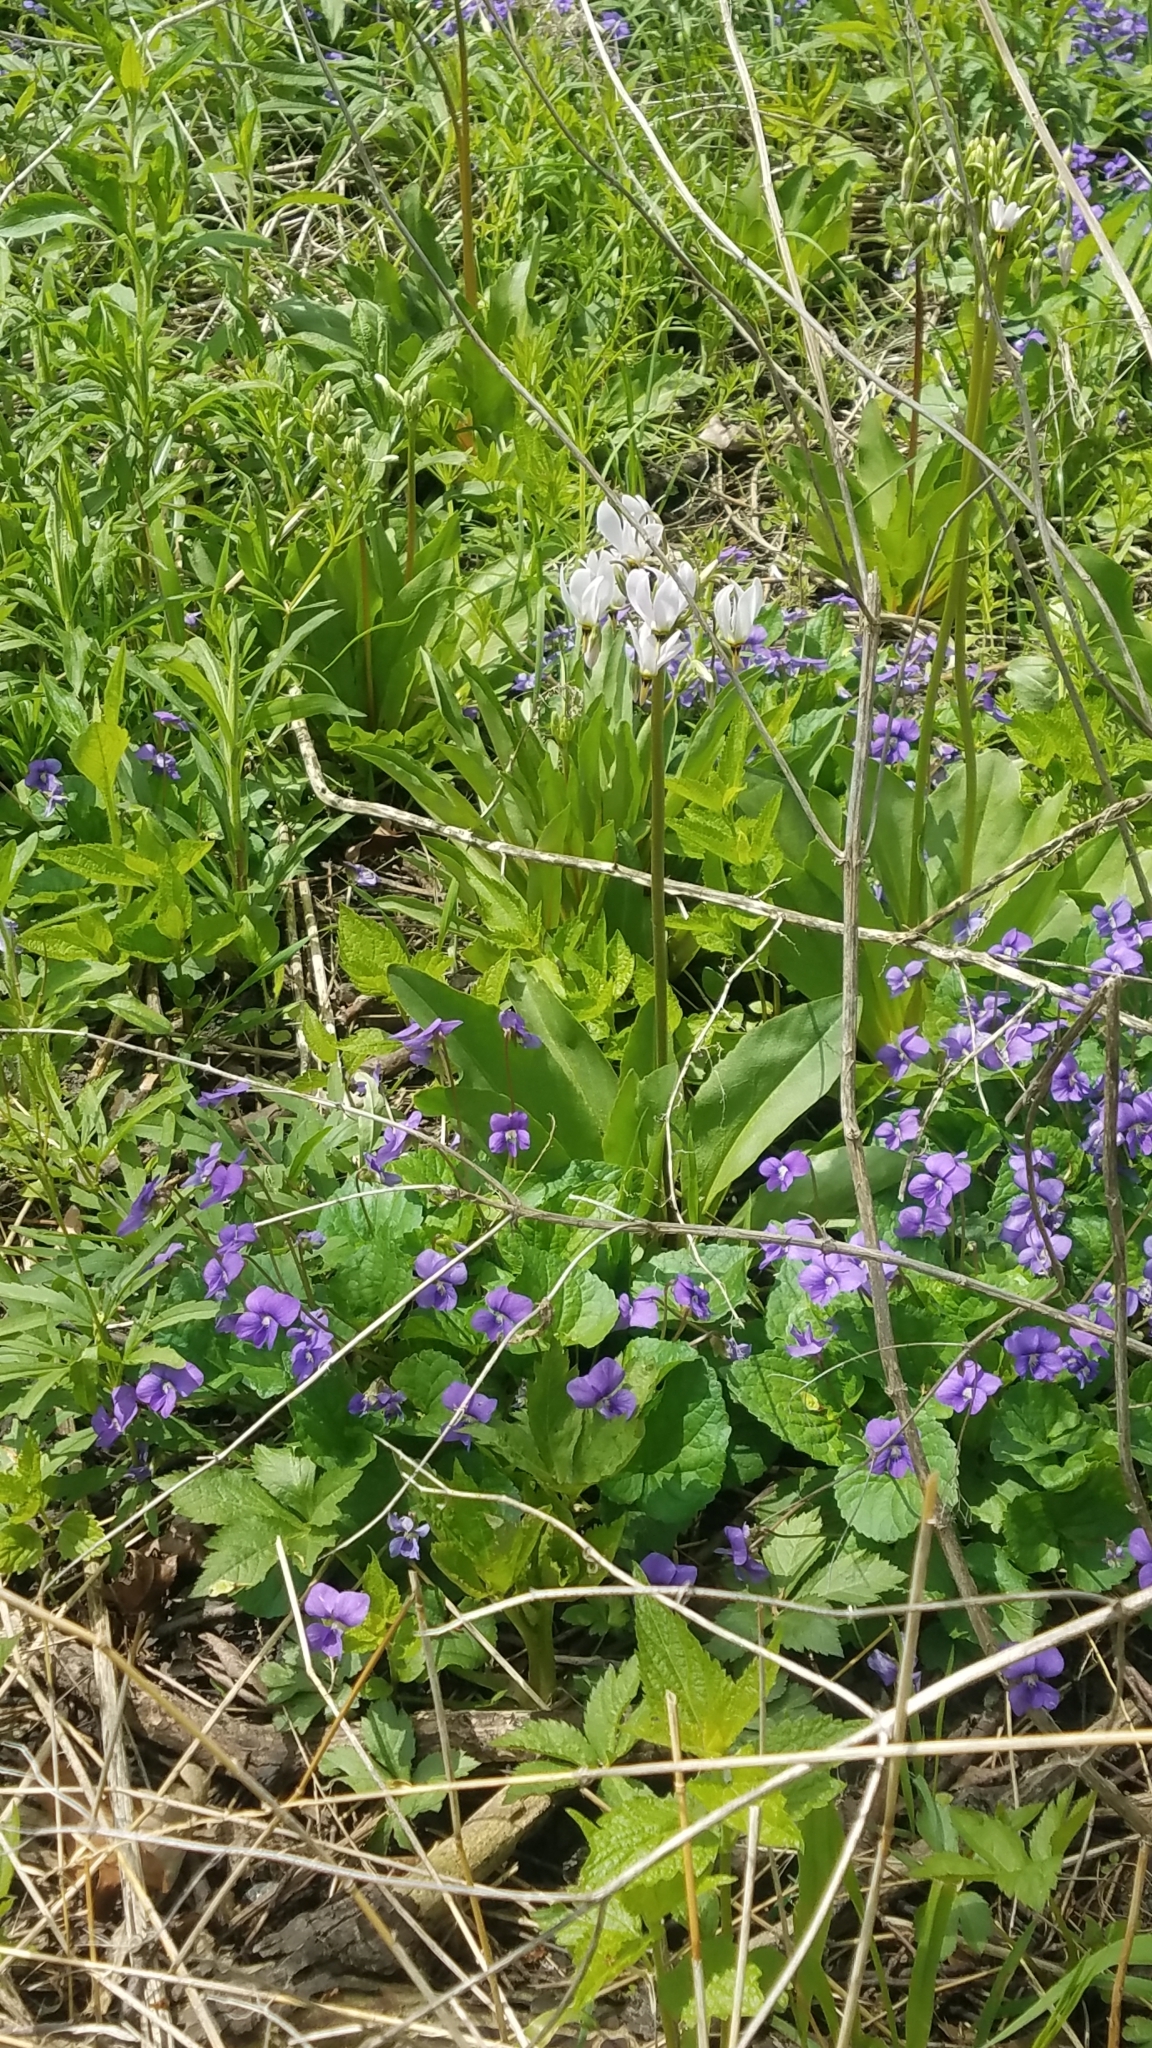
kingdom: Plantae
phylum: Tracheophyta
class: Magnoliopsida
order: Ericales
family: Primulaceae
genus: Dodecatheon
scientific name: Dodecatheon meadia
